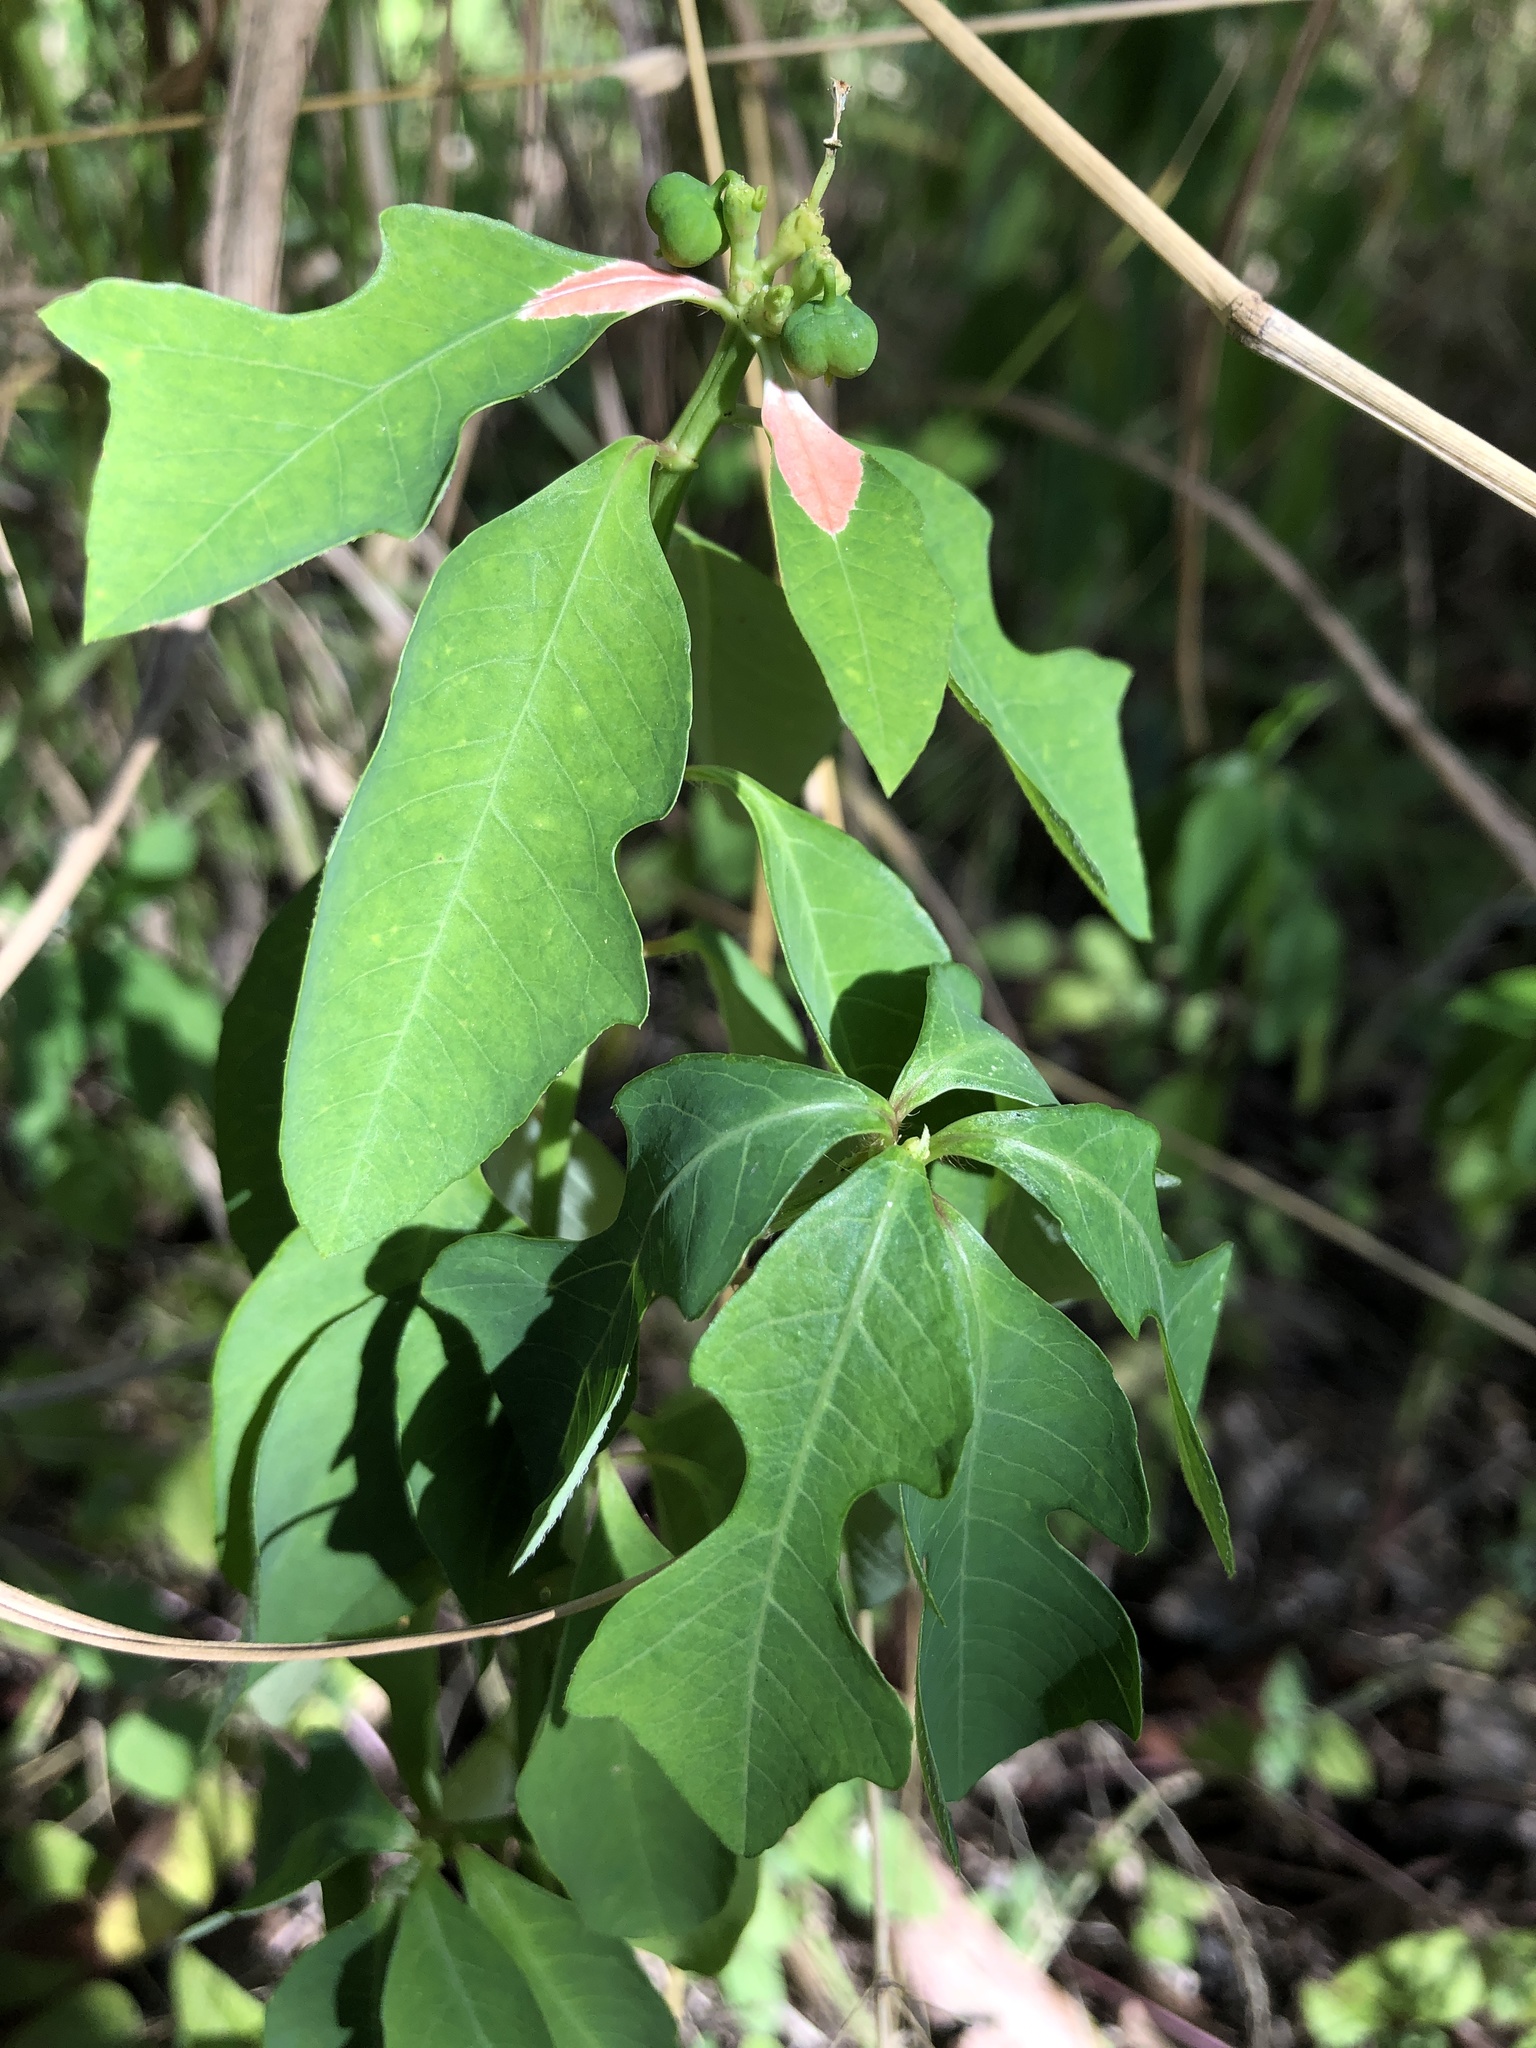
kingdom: Plantae
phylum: Tracheophyta
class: Magnoliopsida
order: Malpighiales
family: Euphorbiaceae
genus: Euphorbia
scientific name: Euphorbia heterophylla
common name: Mexican fireplant
